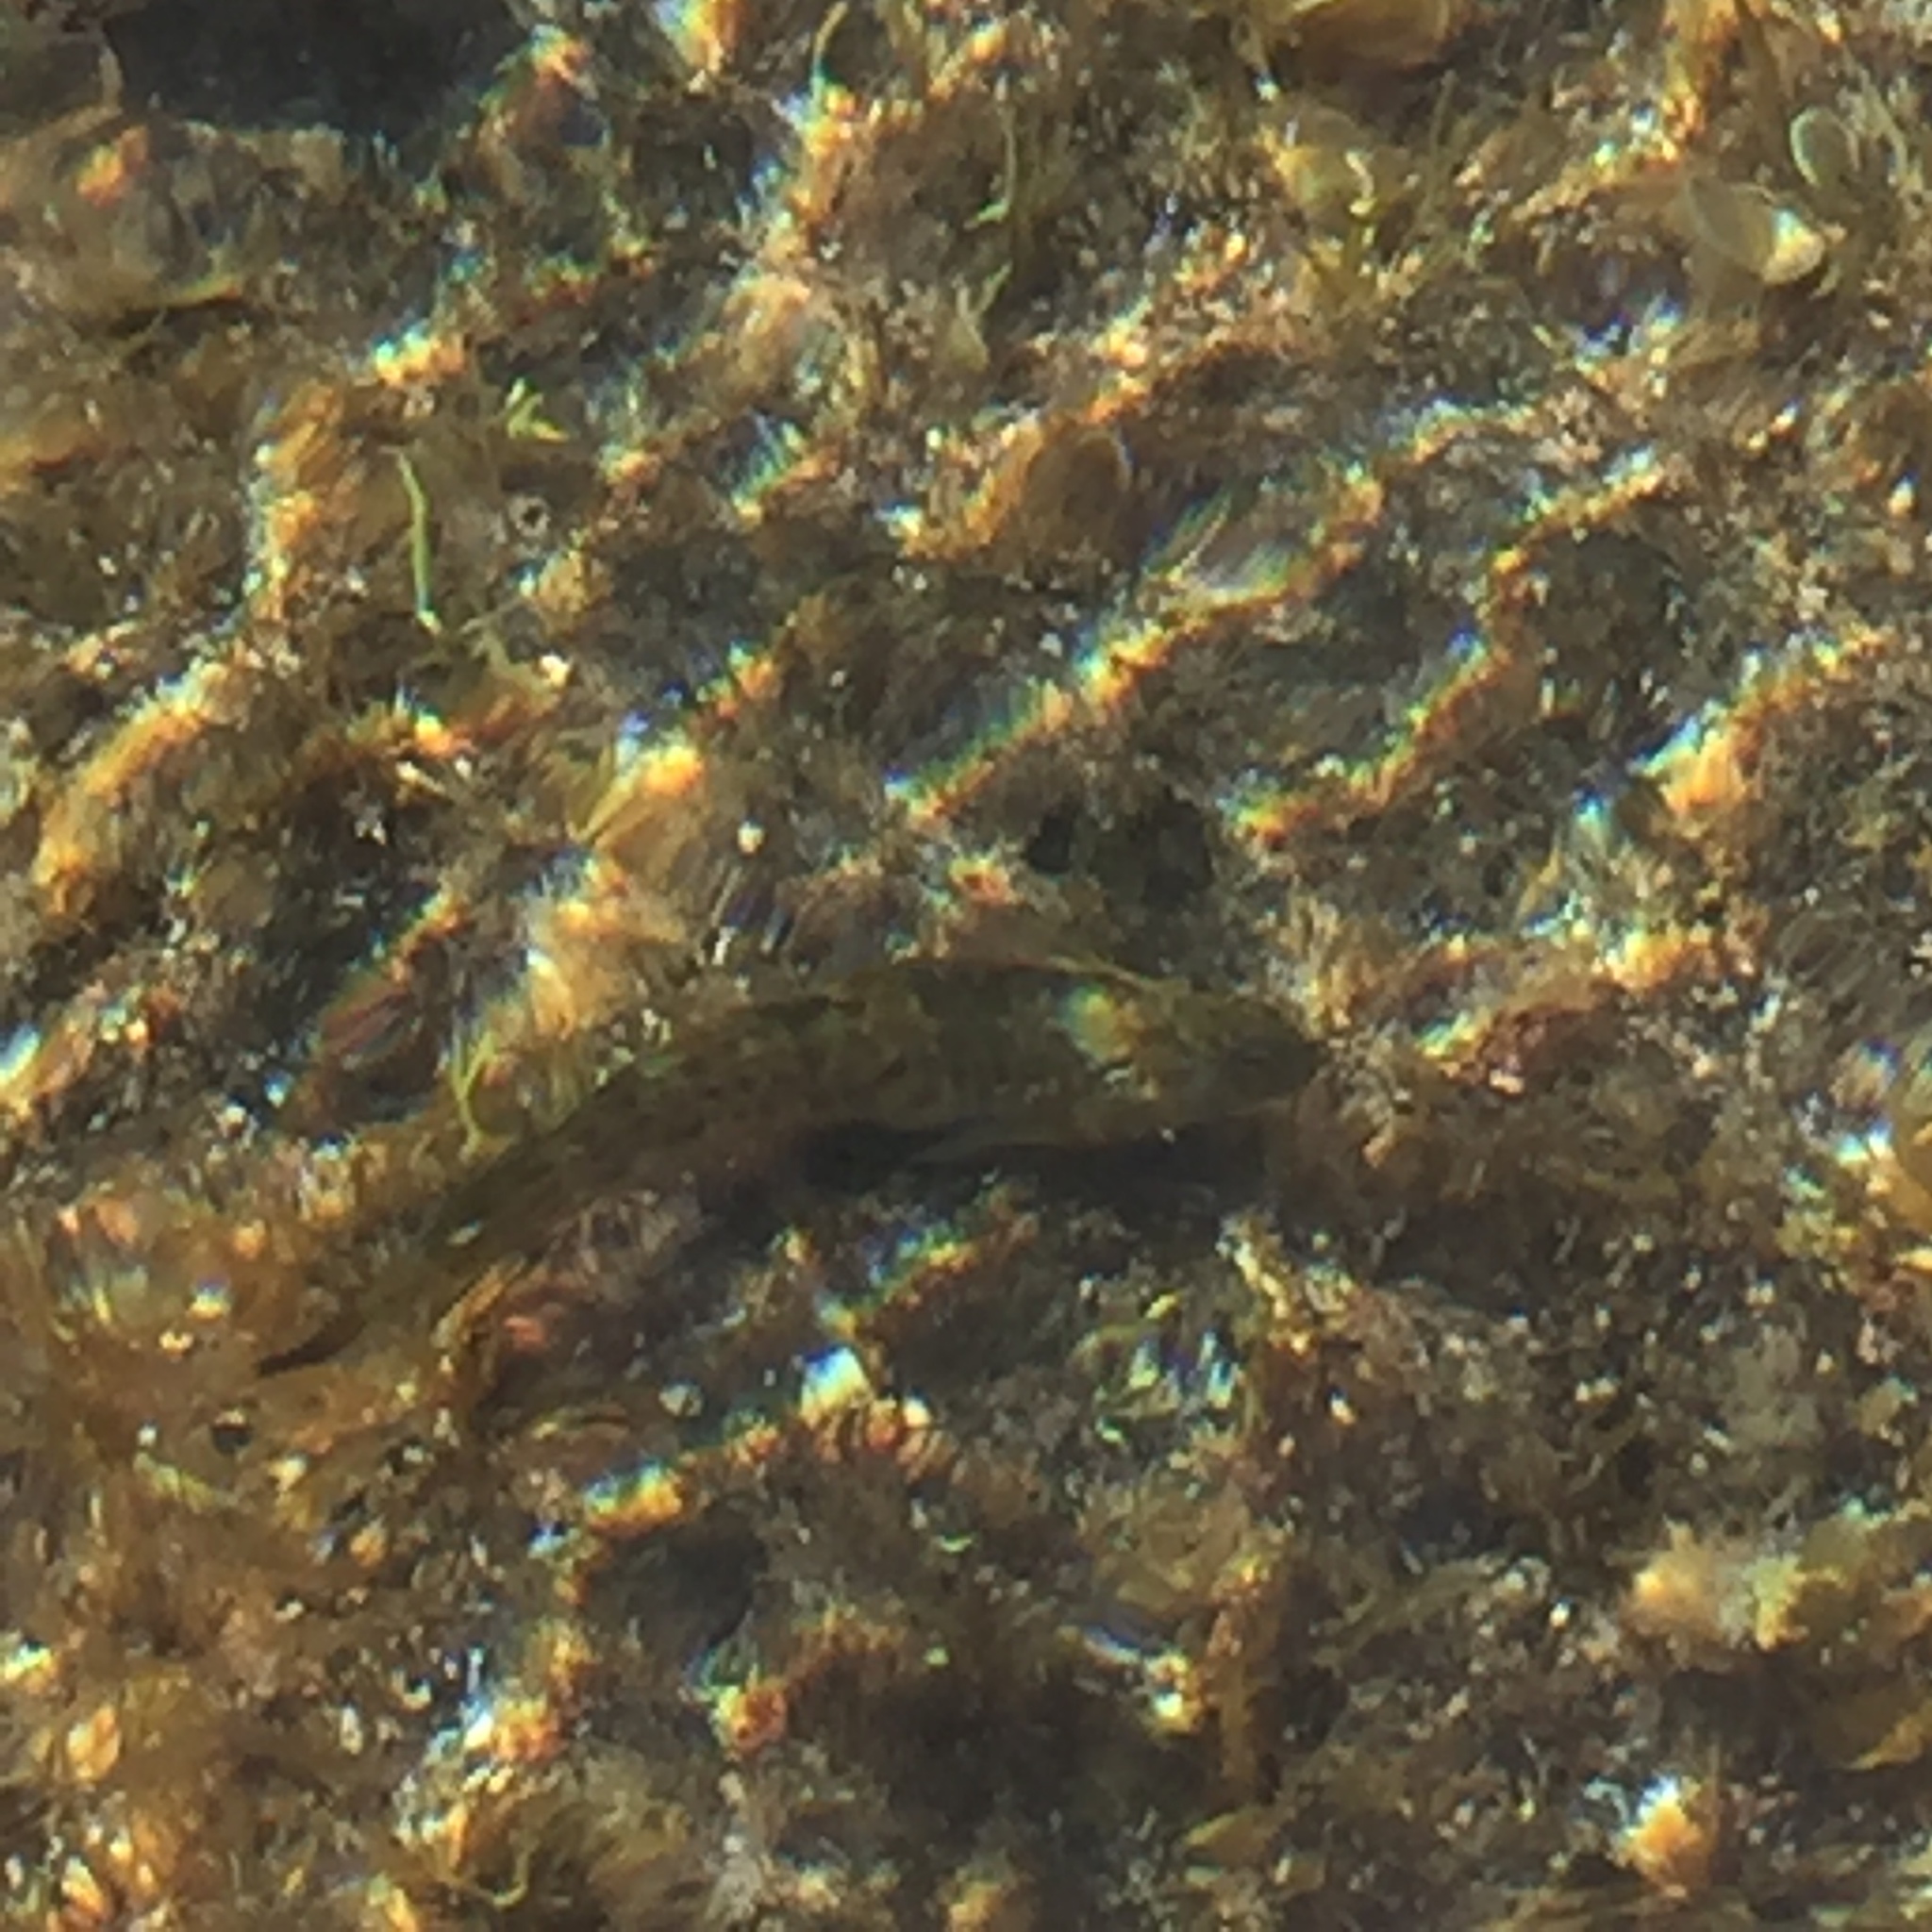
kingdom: Animalia
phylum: Chordata
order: Perciformes
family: Blenniidae
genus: Parablennius
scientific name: Parablennius parvicornis
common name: Rock-pool blenny
